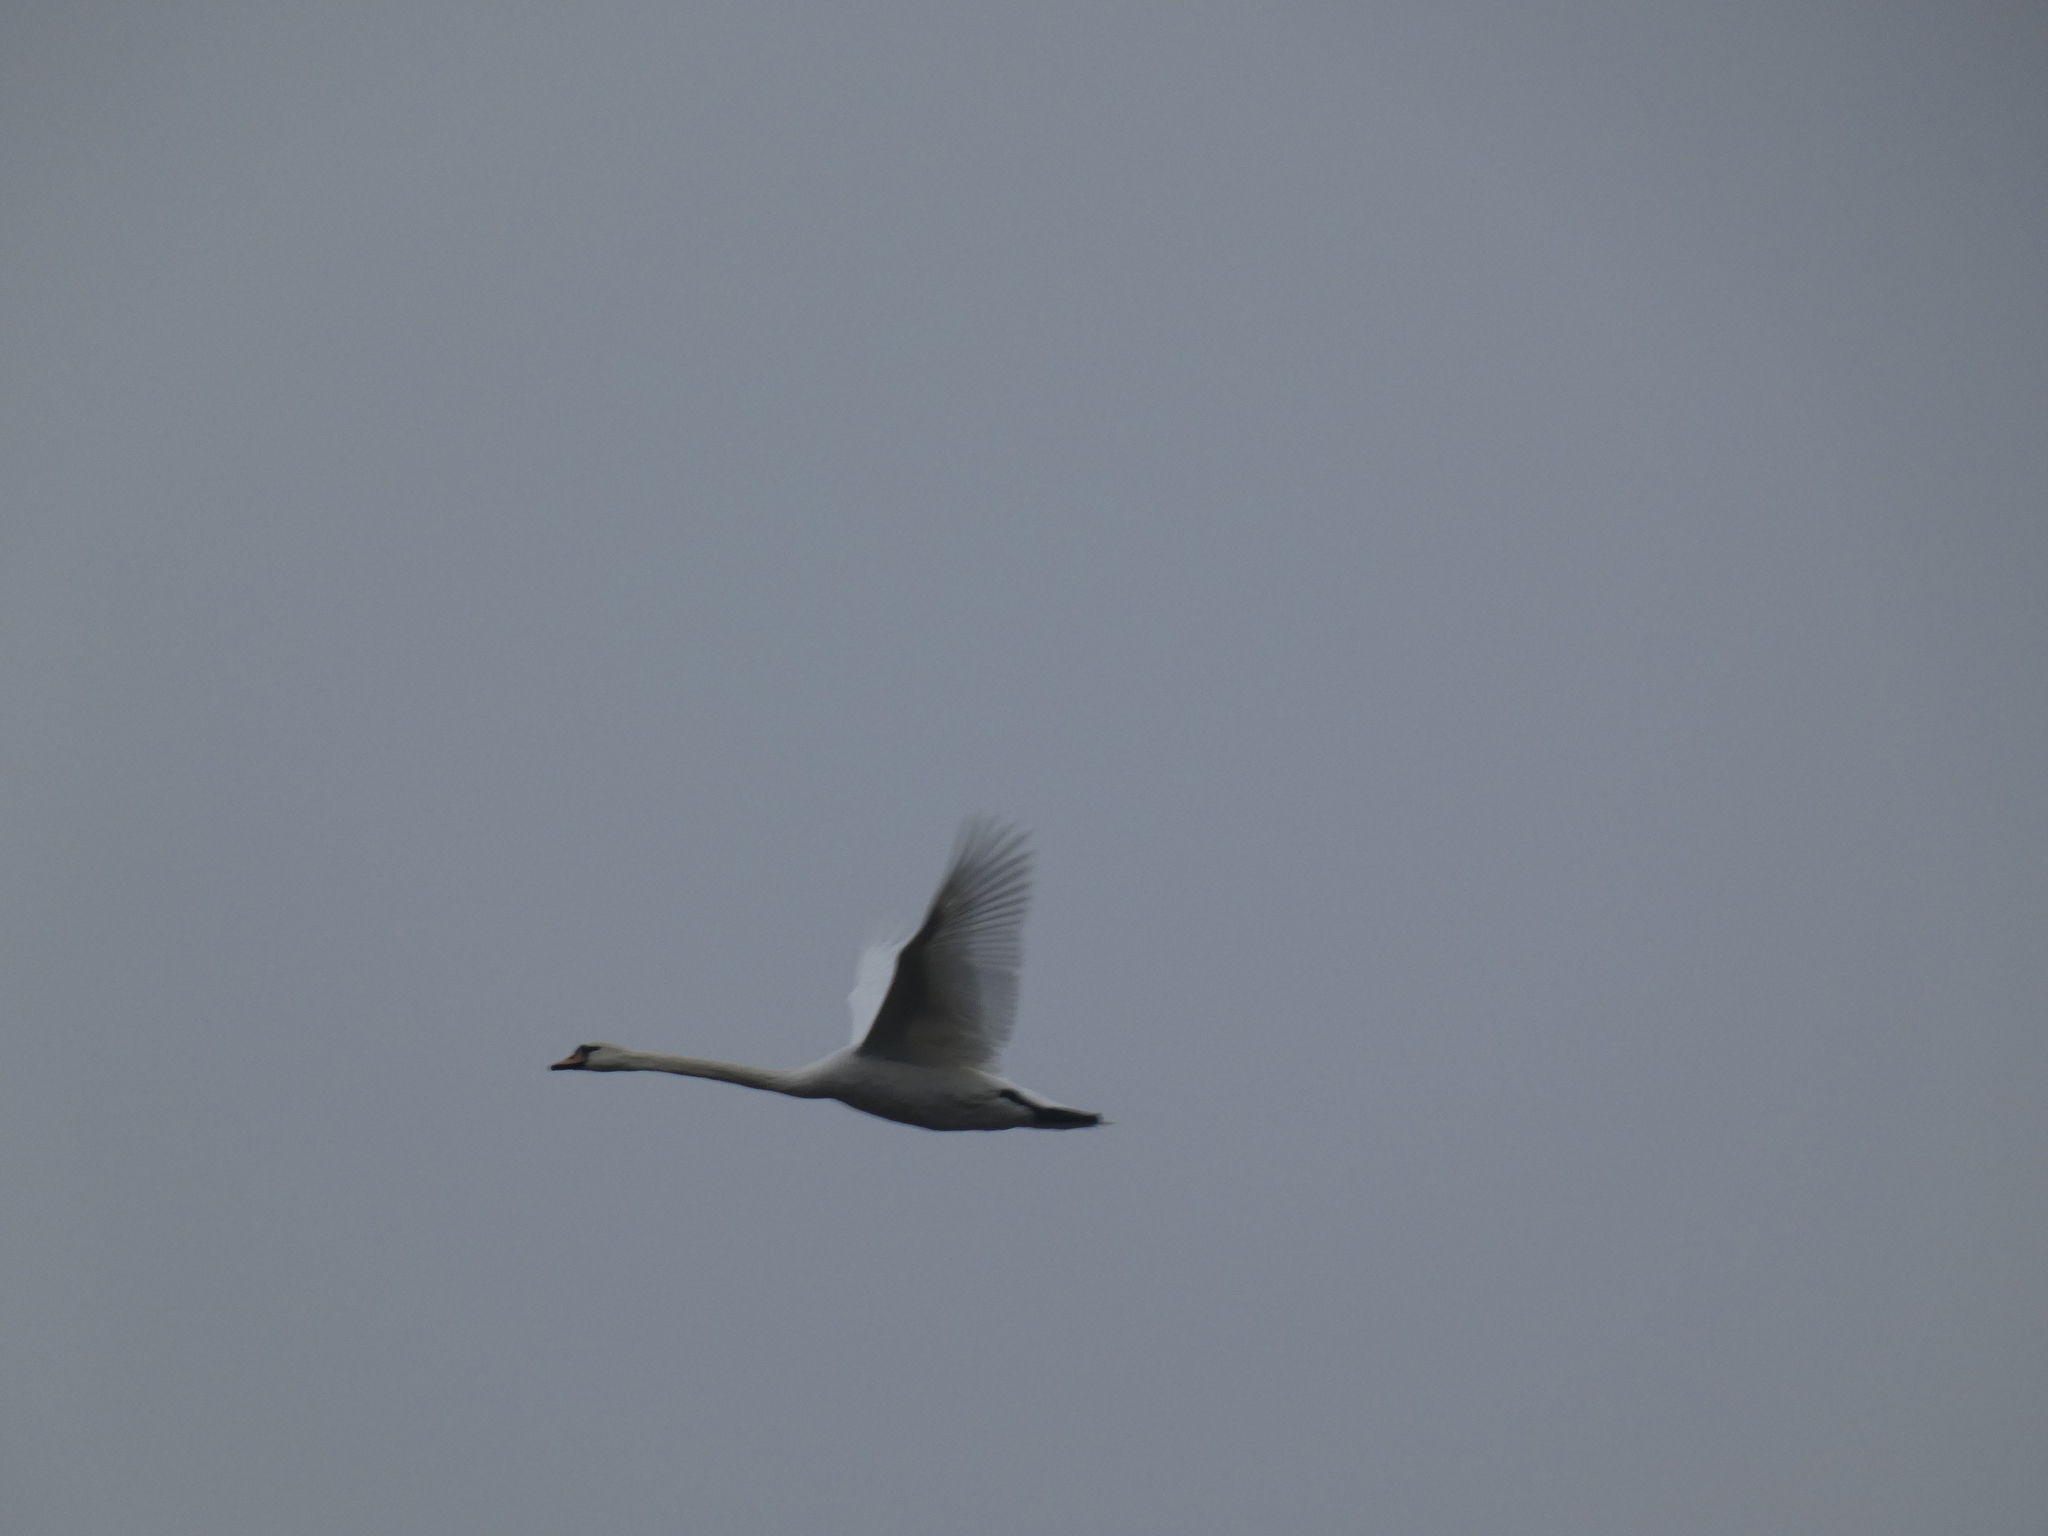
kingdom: Animalia
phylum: Chordata
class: Aves
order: Anseriformes
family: Anatidae
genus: Cygnus
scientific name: Cygnus olor
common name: Mute swan
